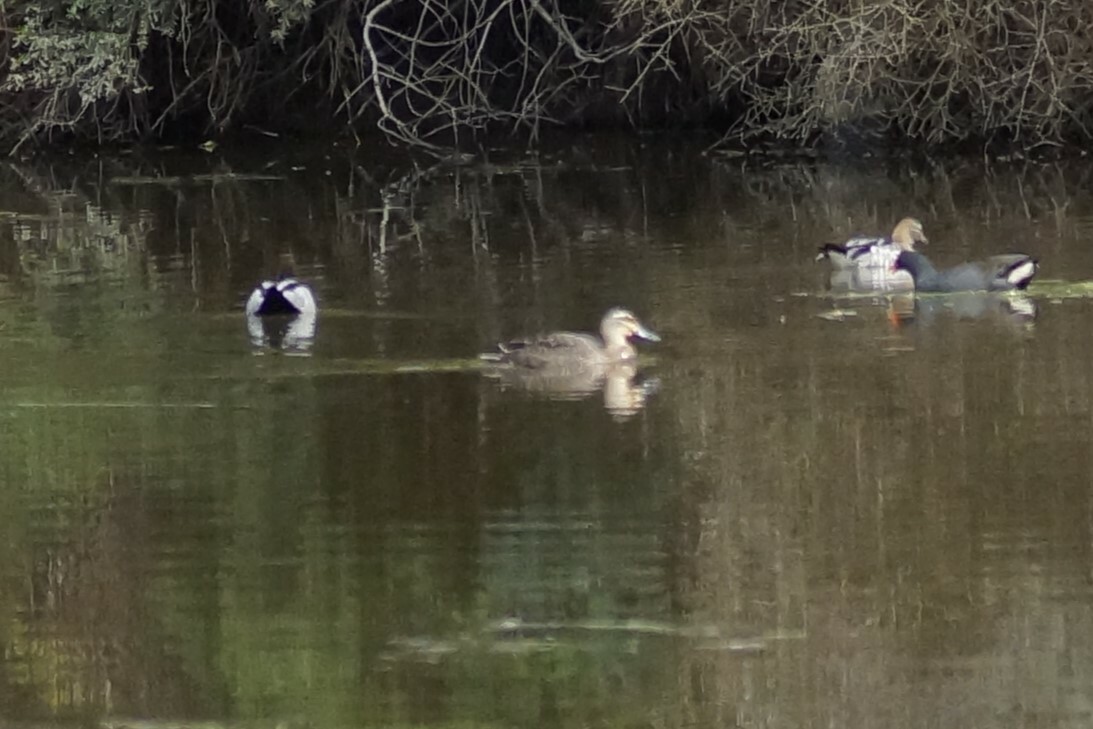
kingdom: Animalia
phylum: Chordata
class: Aves
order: Anseriformes
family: Anatidae
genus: Anas
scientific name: Anas superciliosa
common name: Pacific black duck
